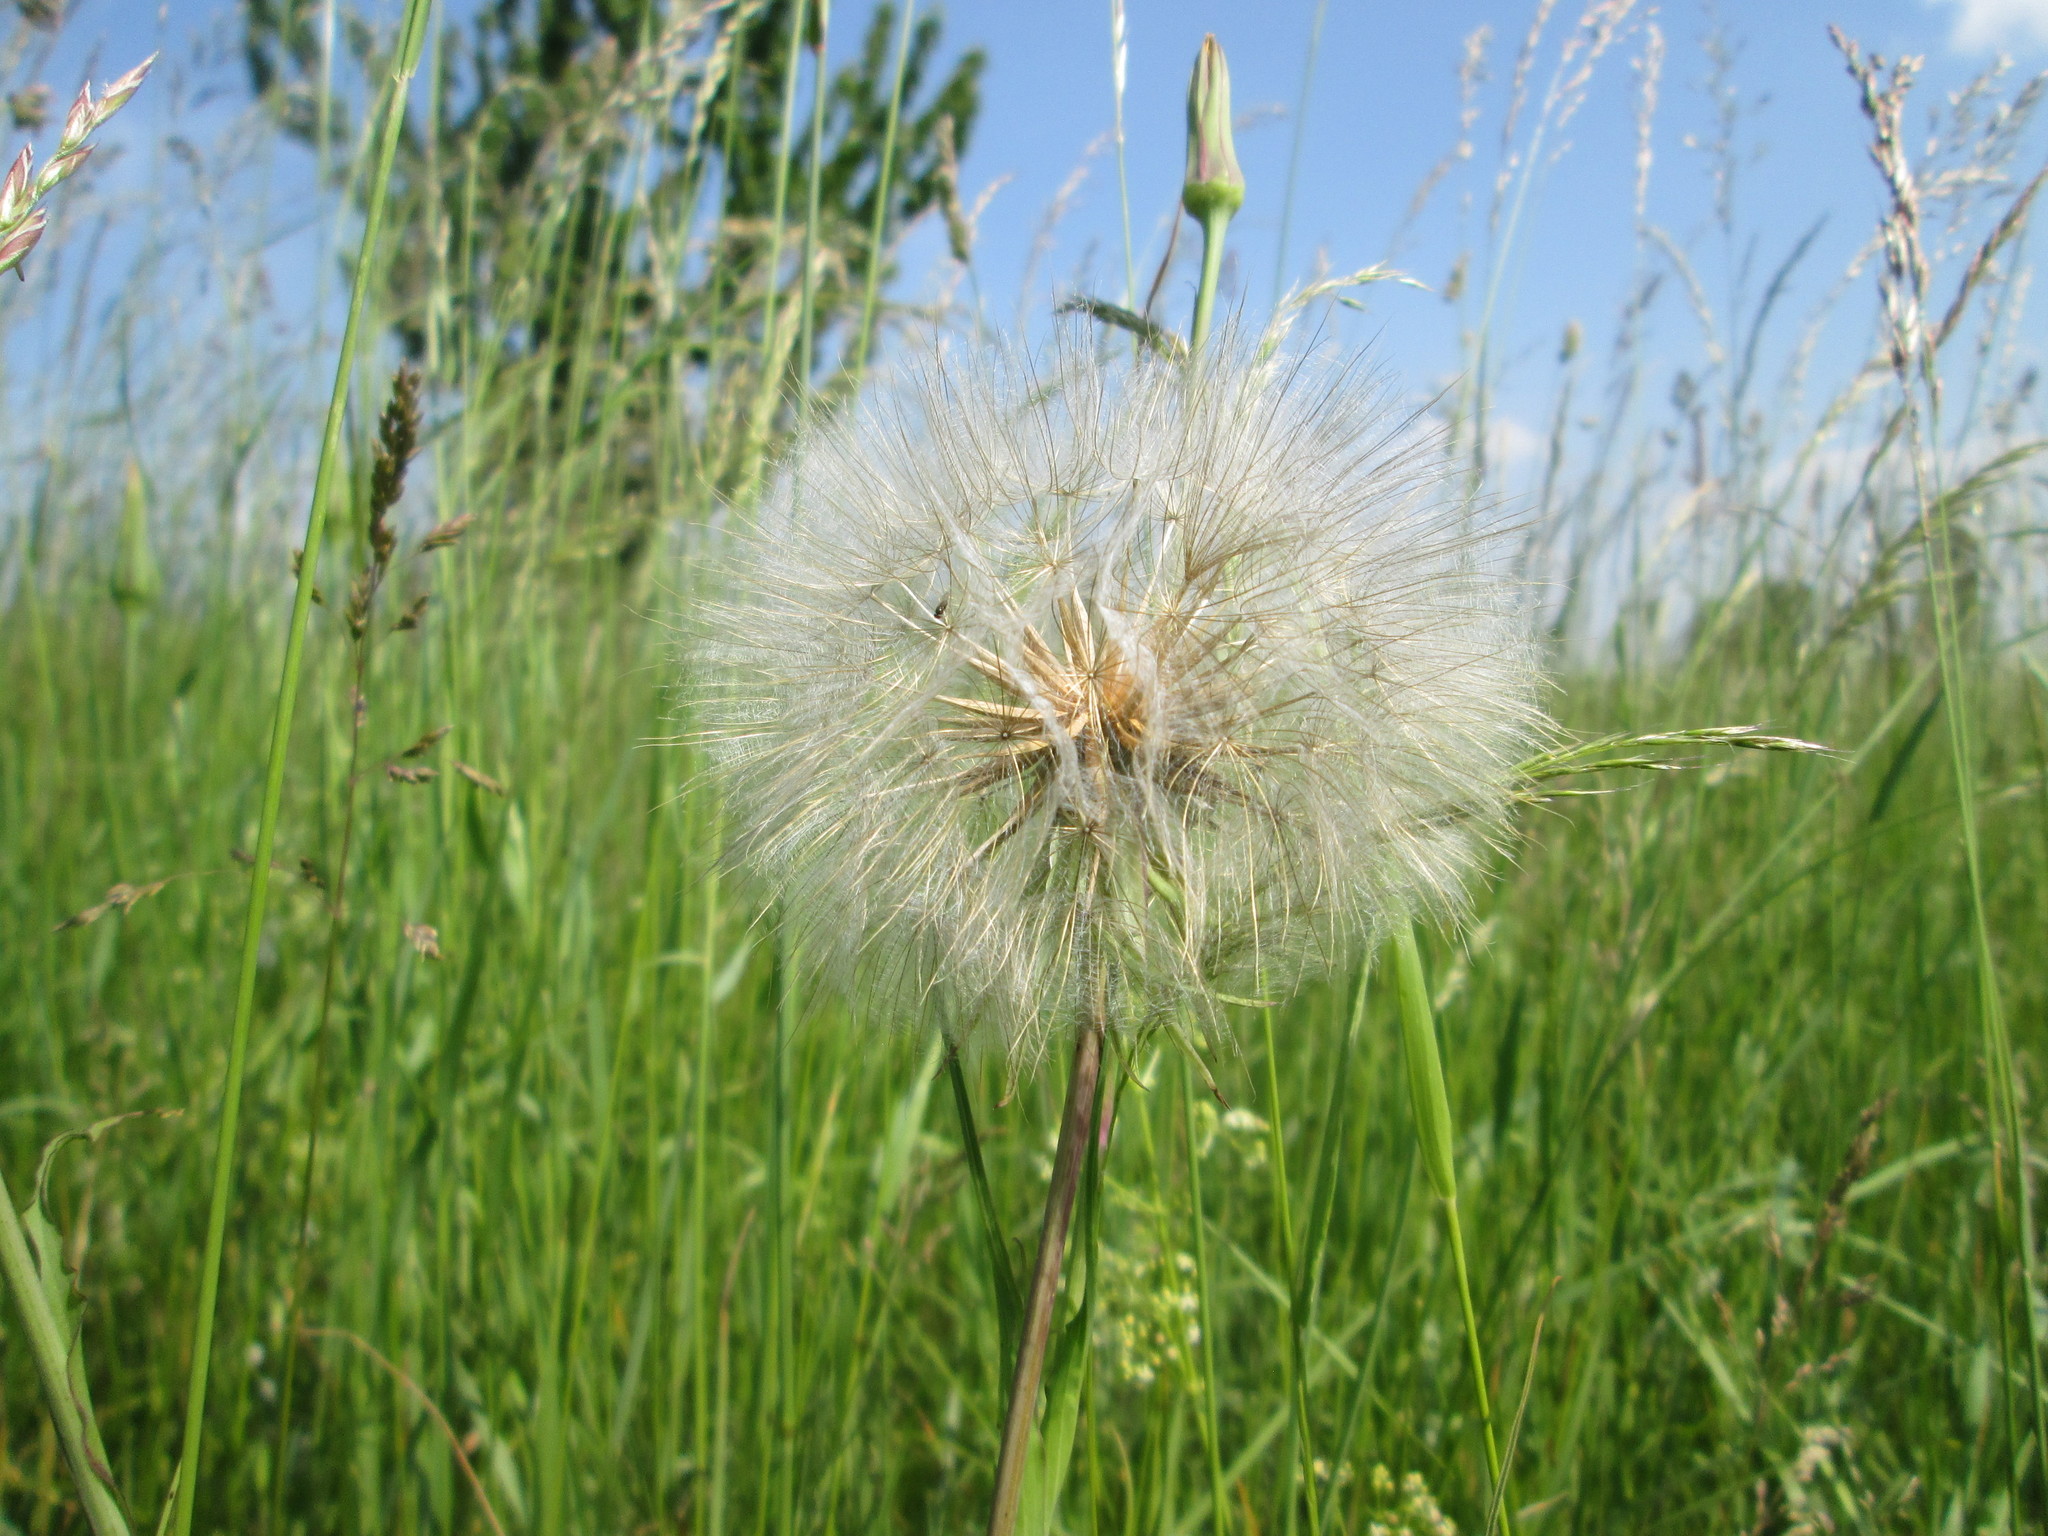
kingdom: Plantae
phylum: Tracheophyta
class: Magnoliopsida
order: Asterales
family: Asteraceae
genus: Tragopogon
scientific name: Tragopogon pratensis
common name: Goat's-beard
